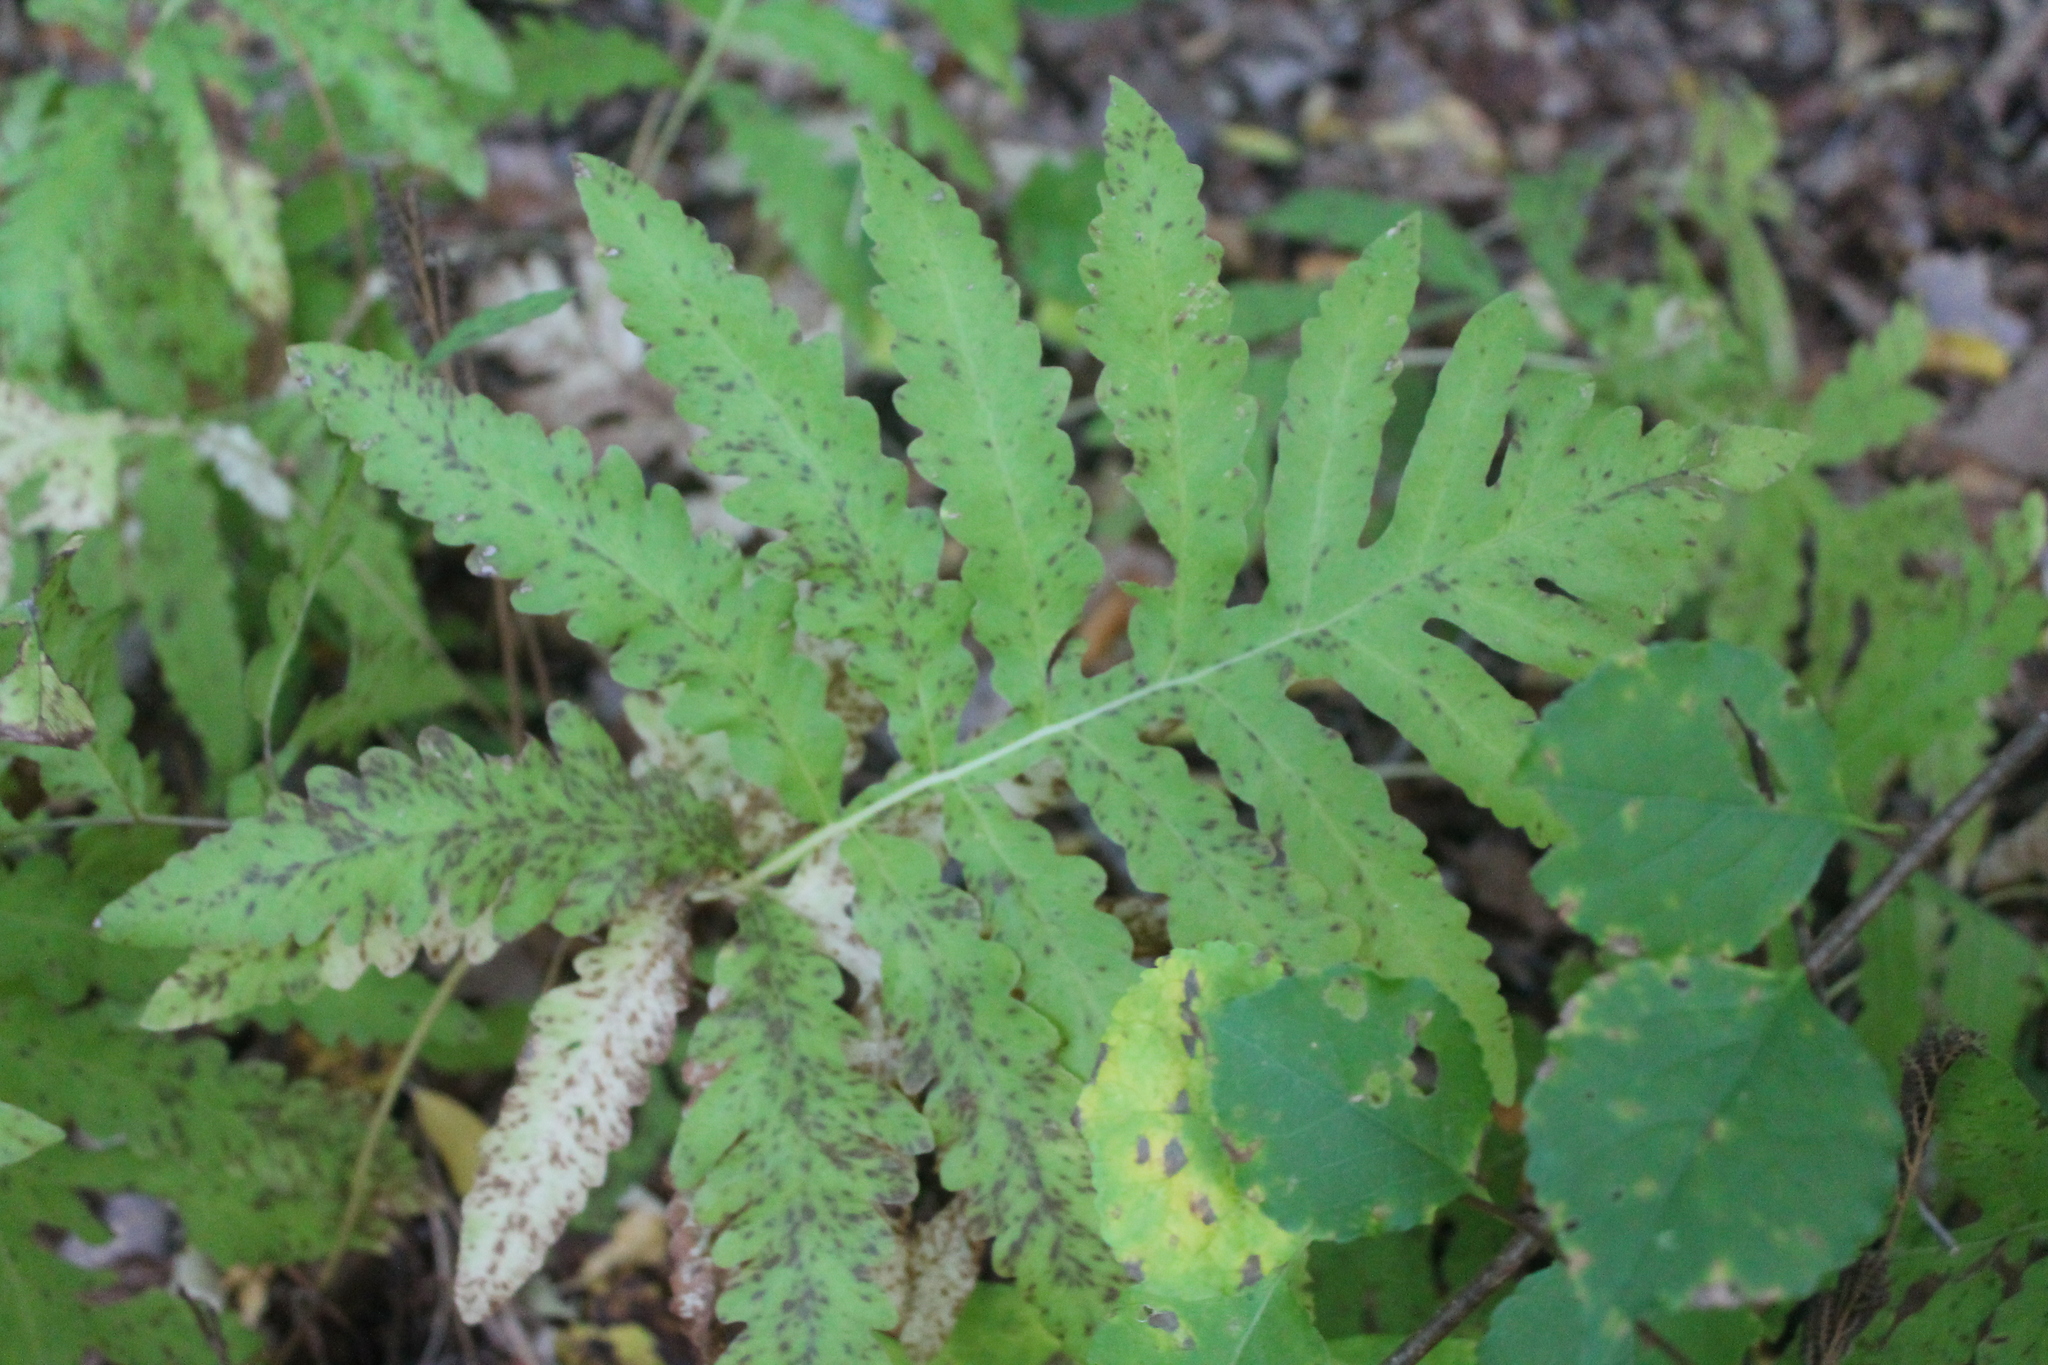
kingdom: Plantae
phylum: Tracheophyta
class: Polypodiopsida
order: Polypodiales
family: Onocleaceae
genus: Onoclea
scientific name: Onoclea sensibilis
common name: Sensitive fern
